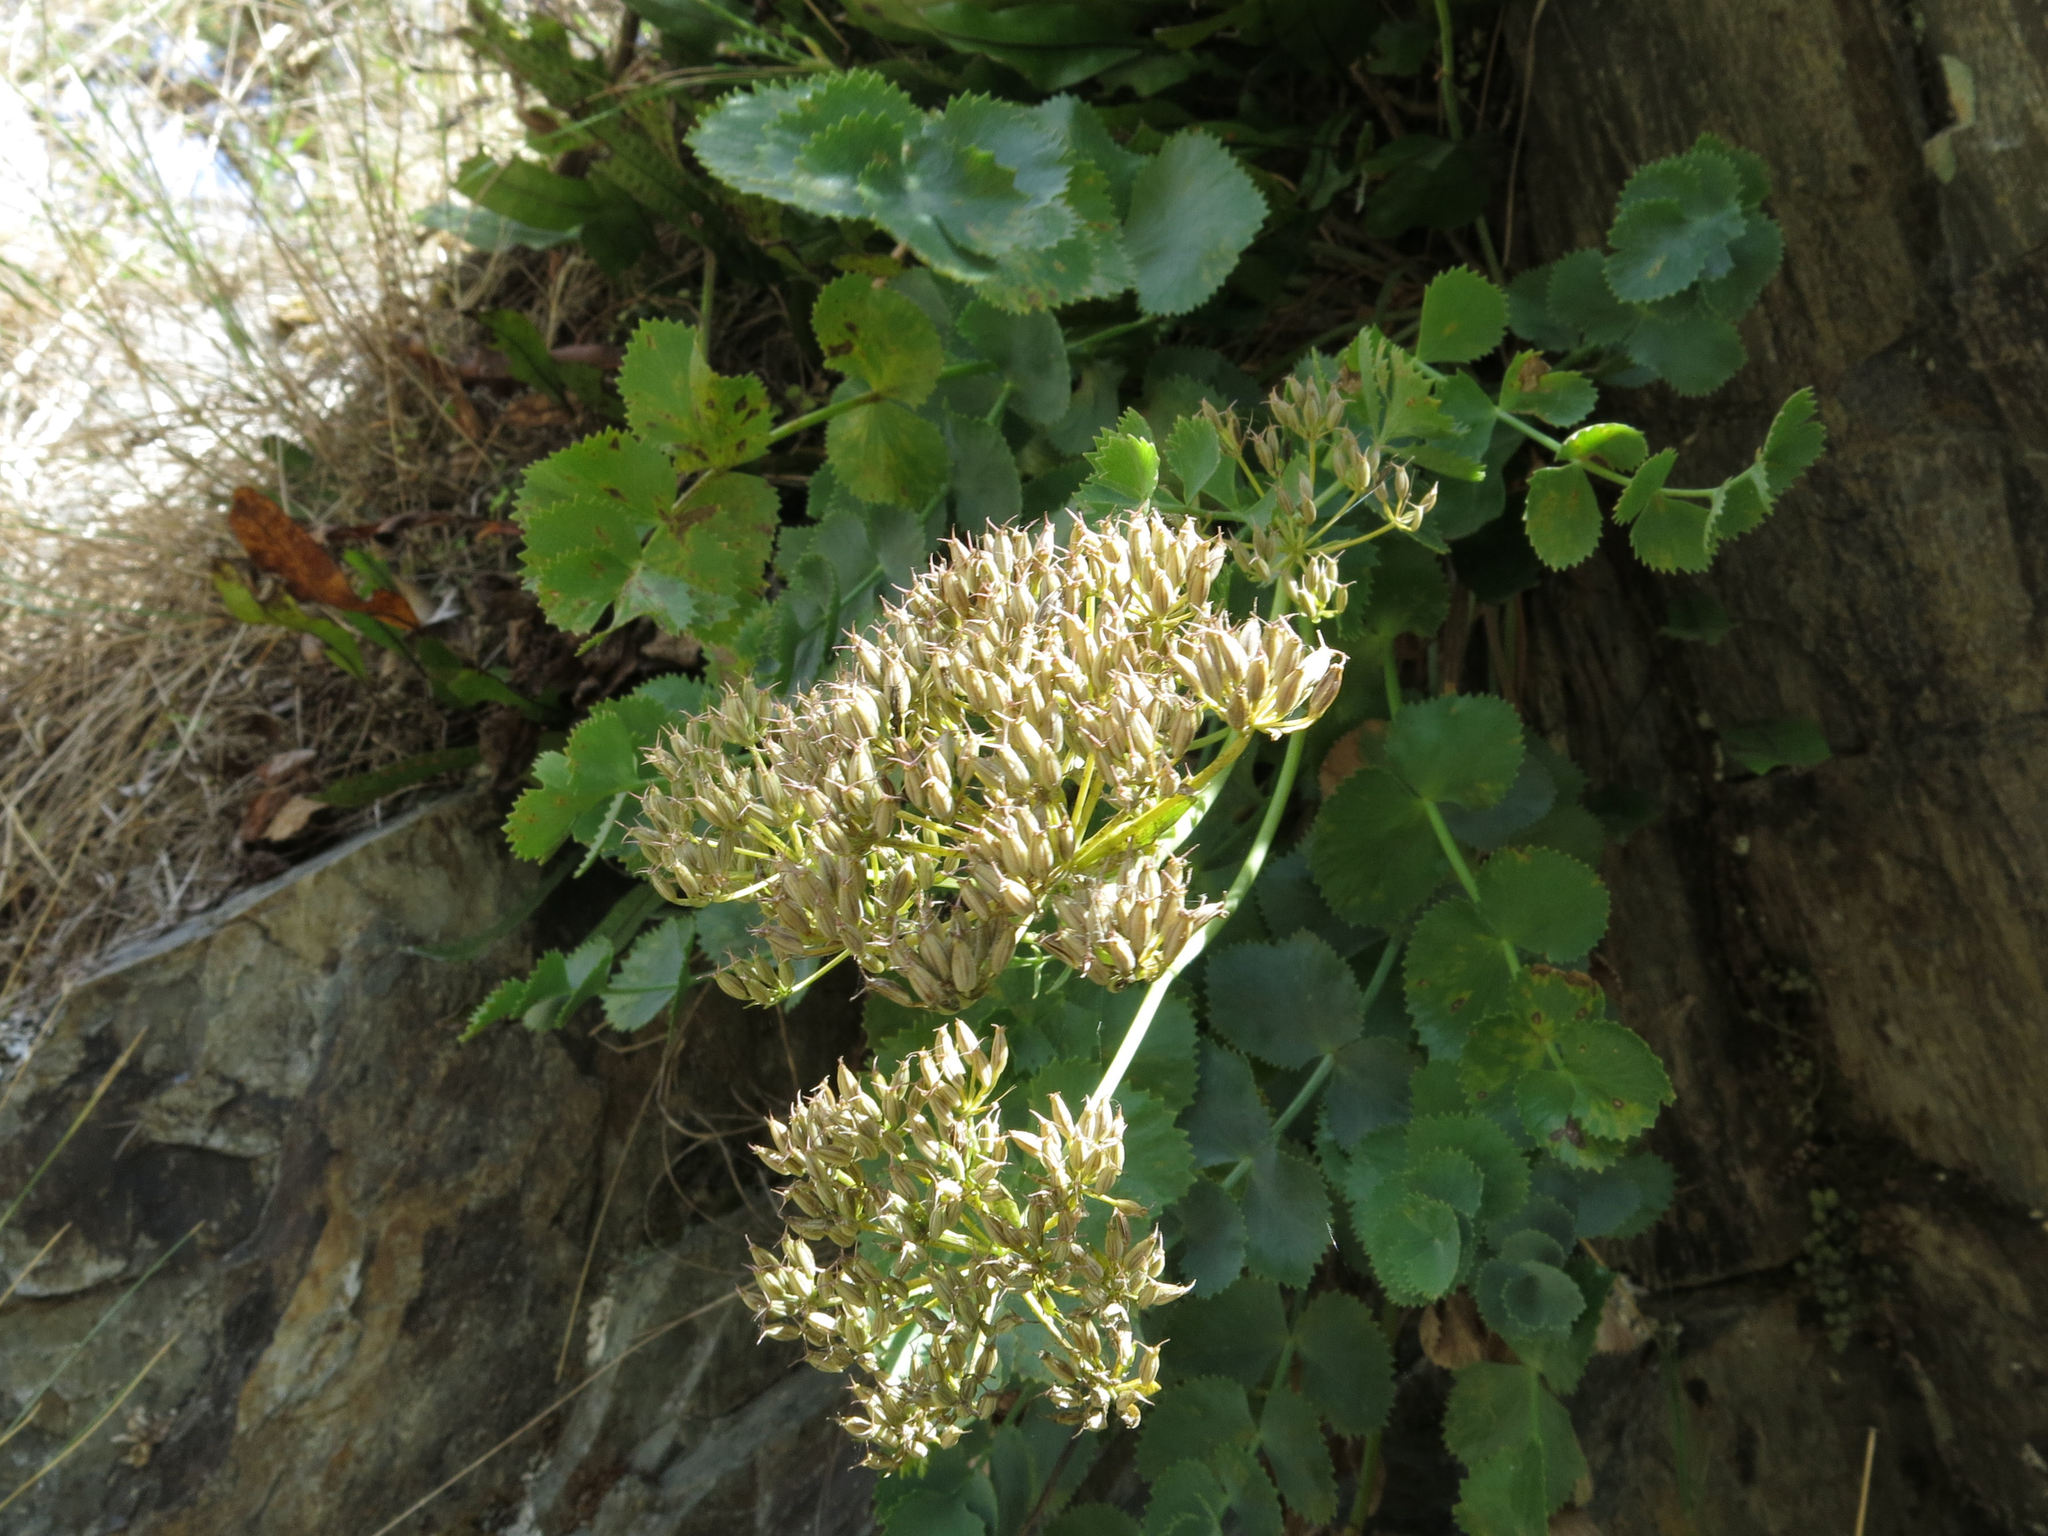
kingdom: Plantae
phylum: Tracheophyta
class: Magnoliopsida
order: Apiales
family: Apiaceae
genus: Gingidia
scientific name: Gingidia grisea
